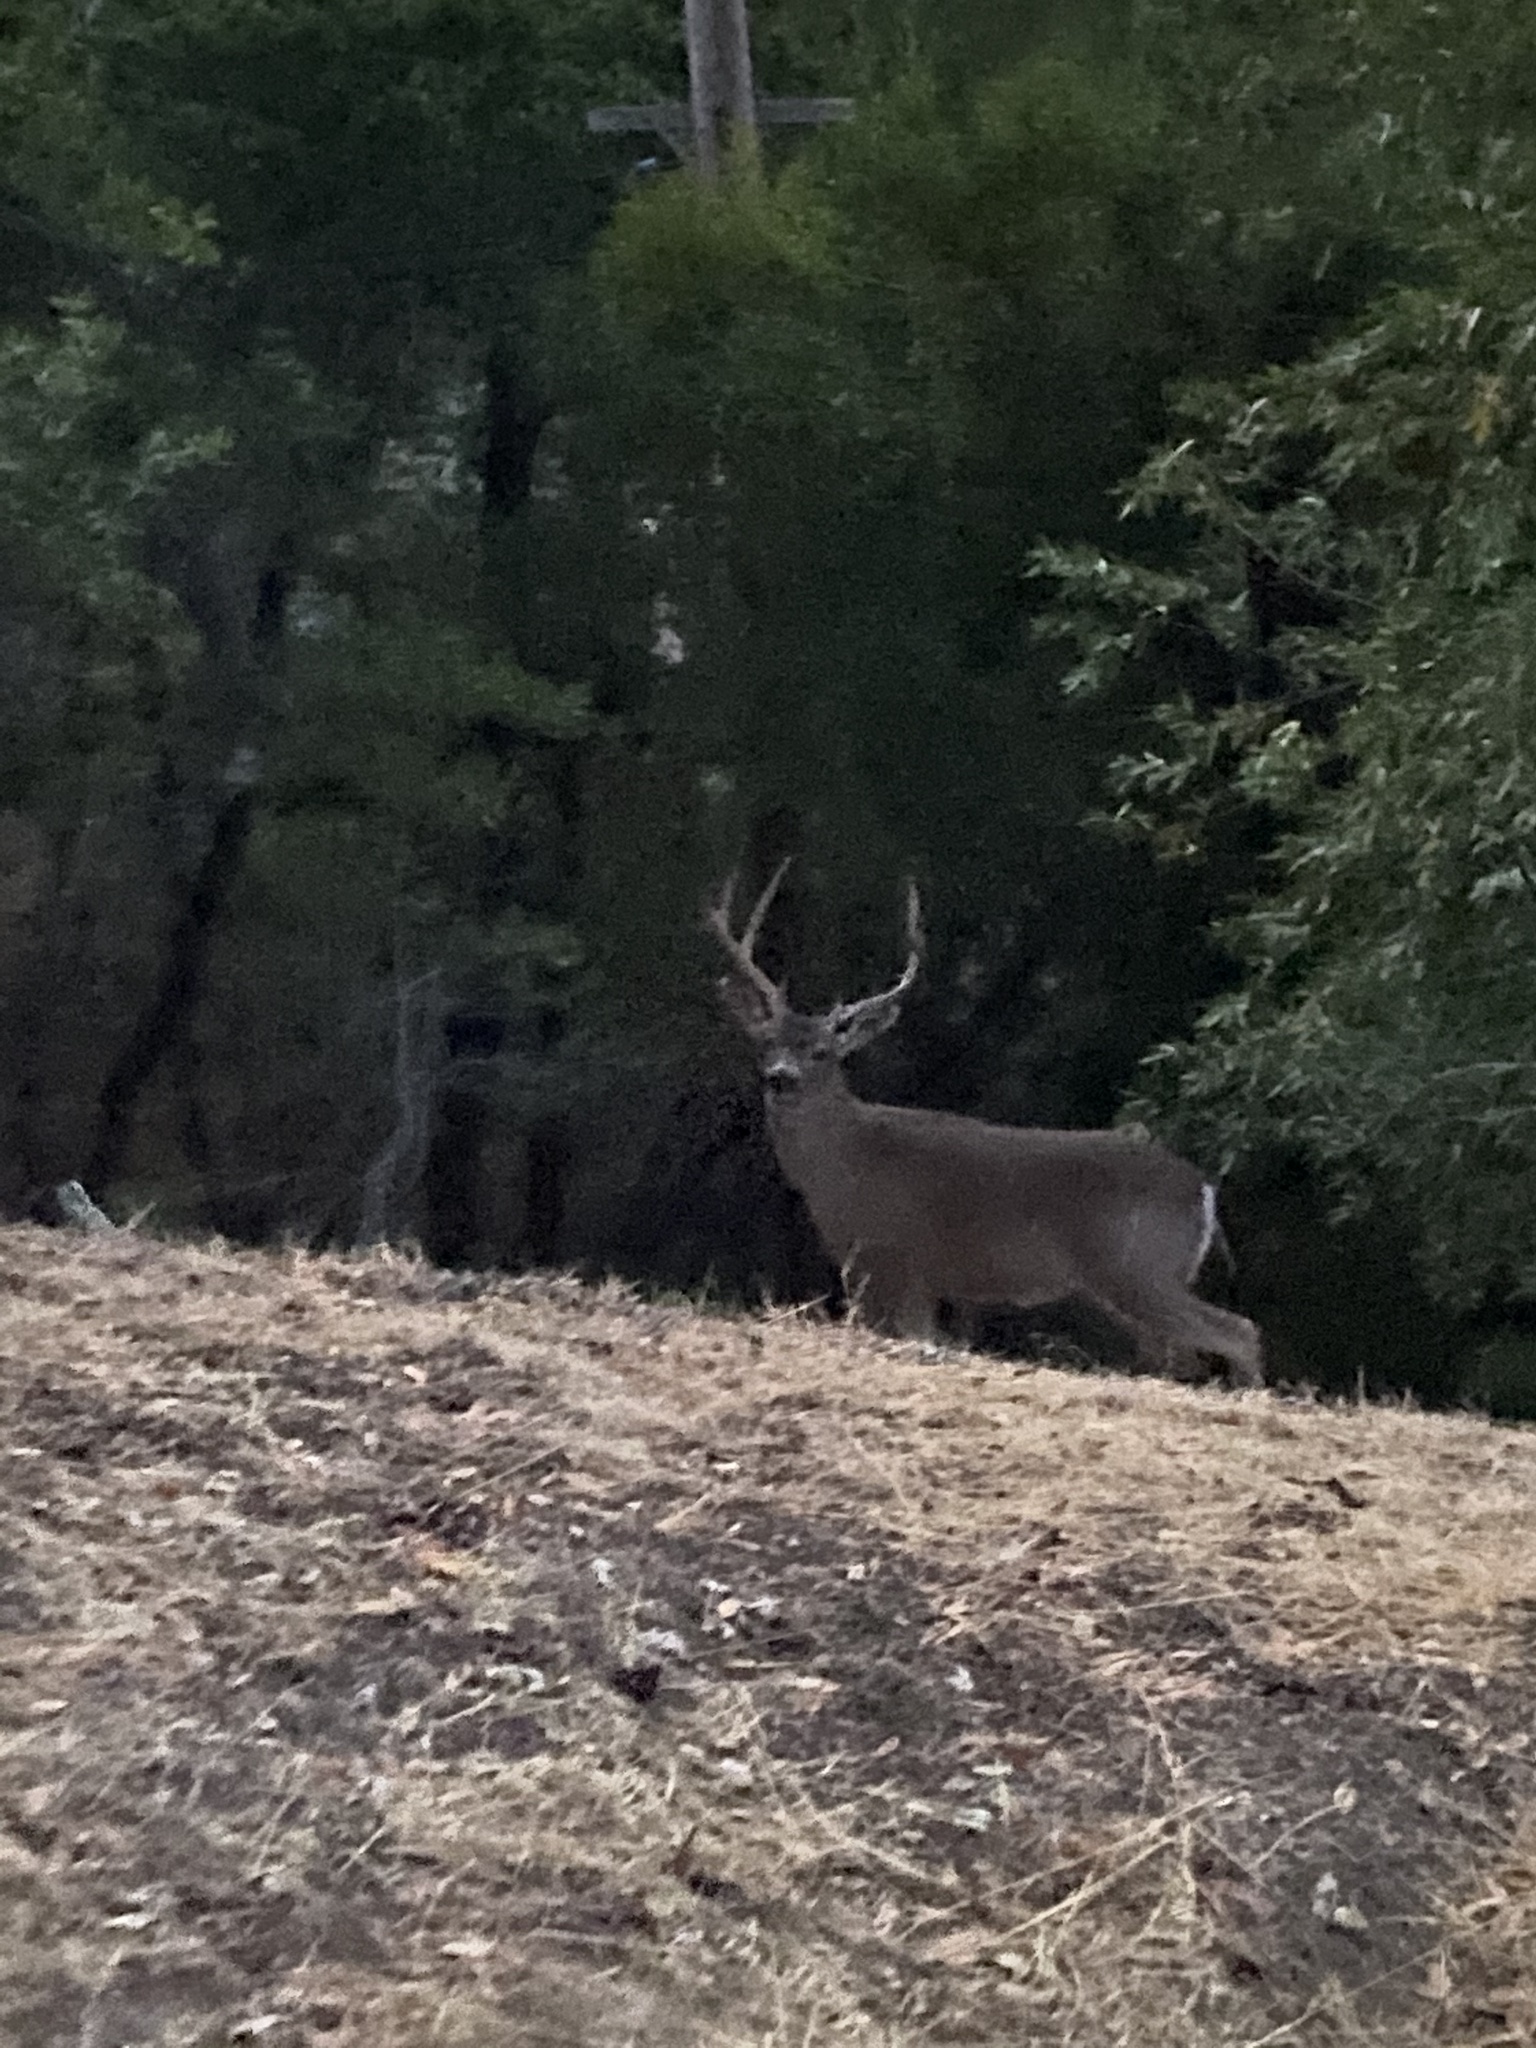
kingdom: Animalia
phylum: Chordata
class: Mammalia
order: Artiodactyla
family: Cervidae
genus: Odocoileus
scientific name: Odocoileus hemionus
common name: Mule deer
